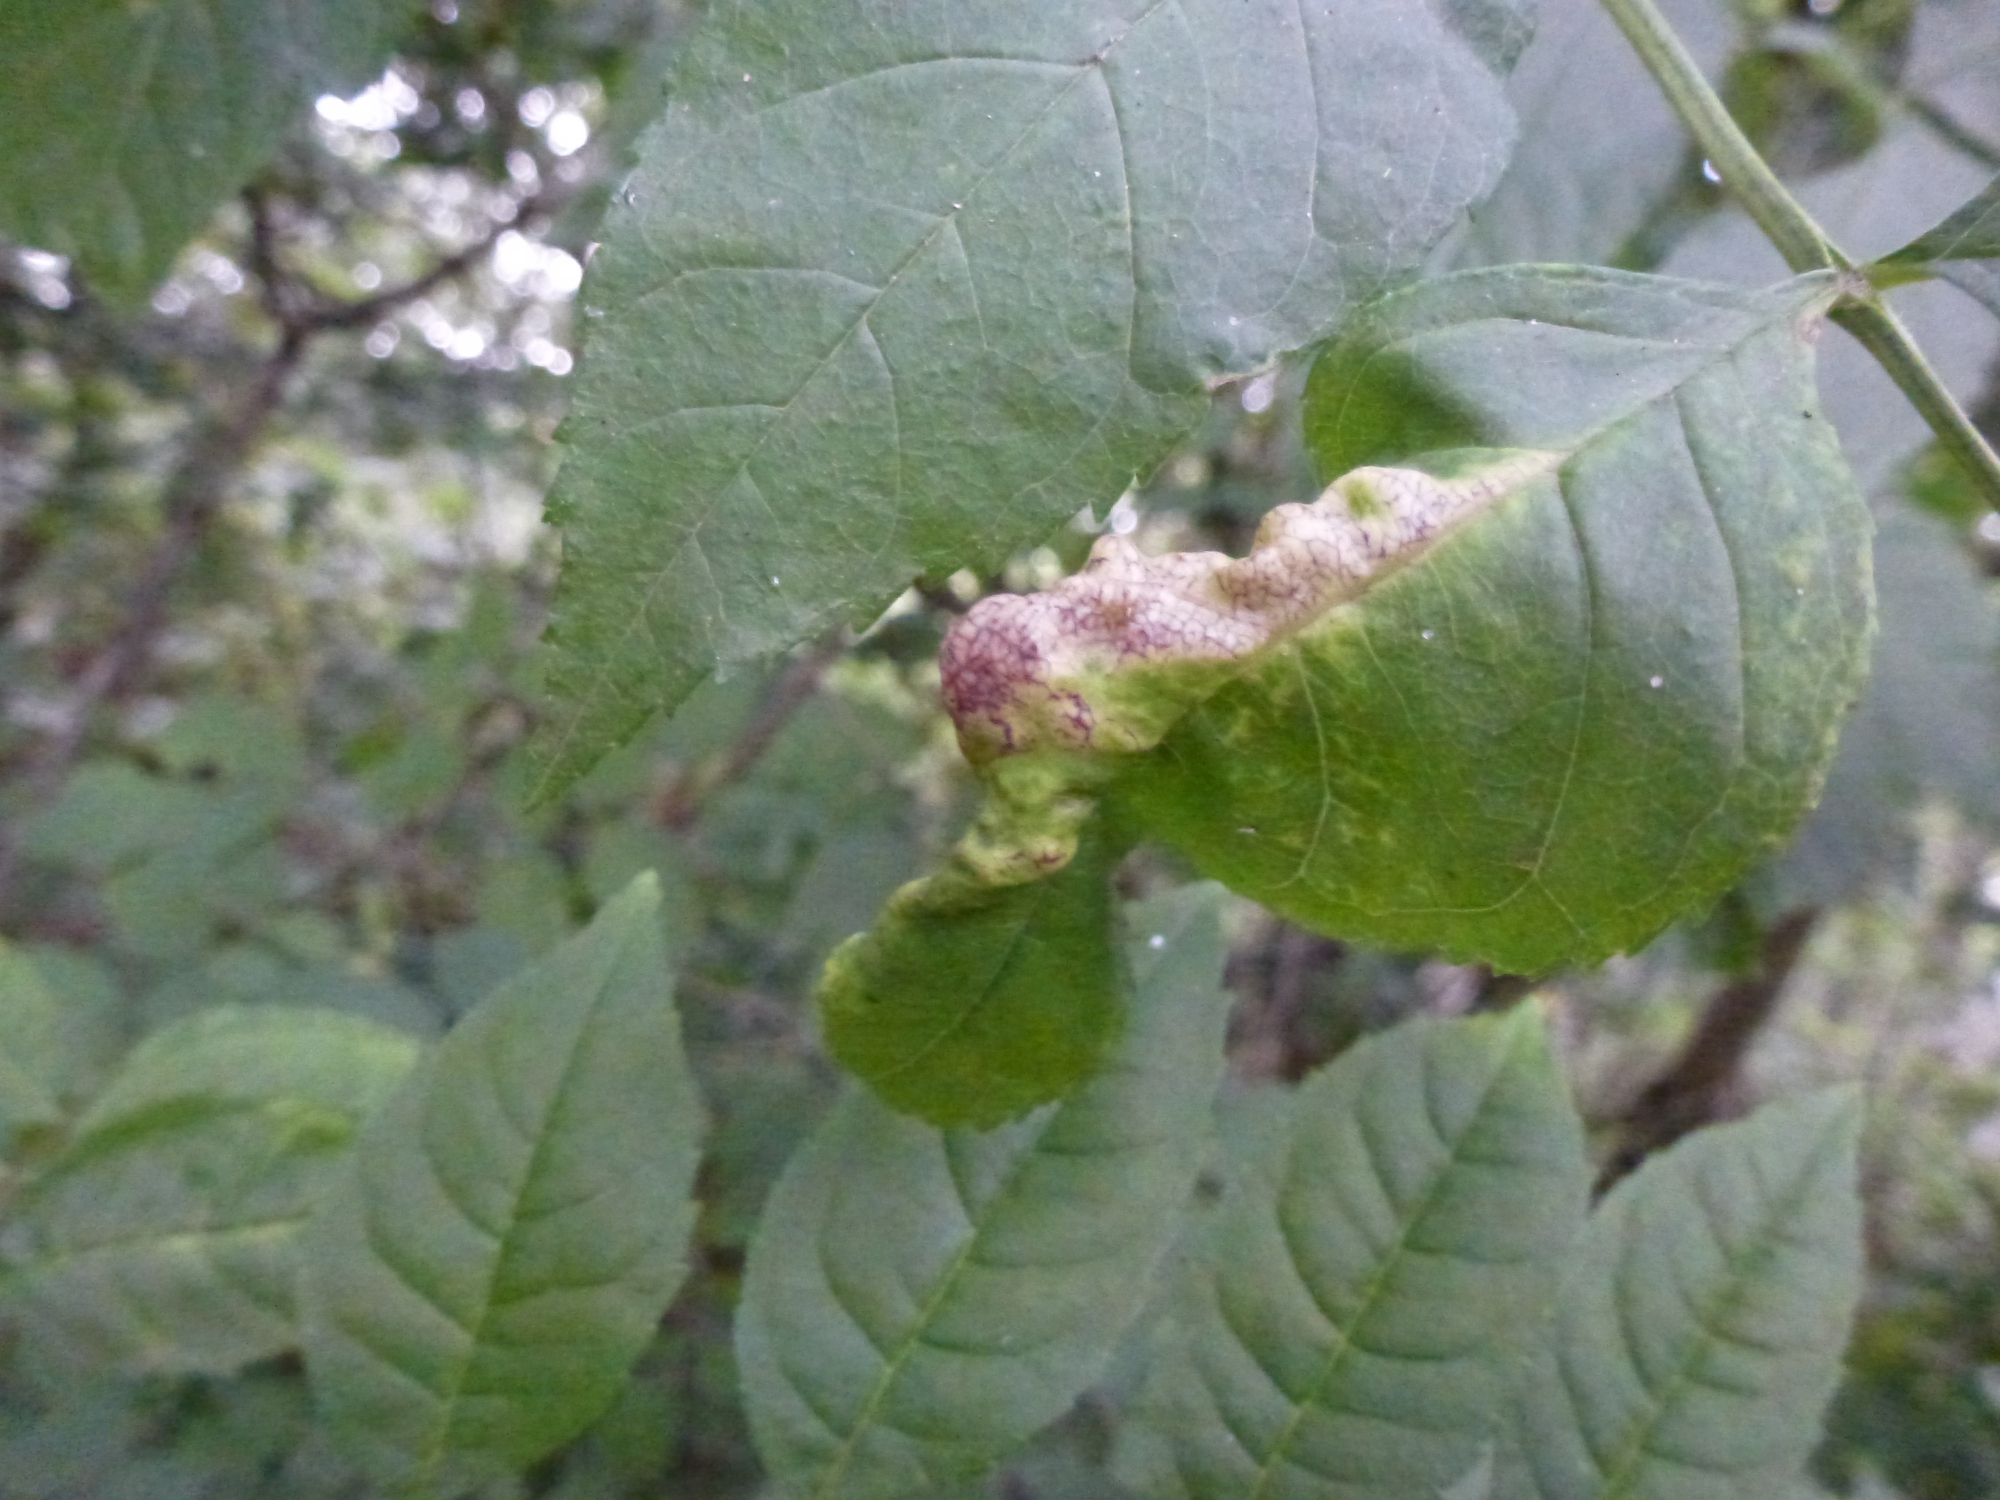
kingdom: Animalia
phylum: Arthropoda
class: Insecta
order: Hemiptera
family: Liviidae
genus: Psyllopsis
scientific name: Psyllopsis fraxini
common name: Jumping plant louse
